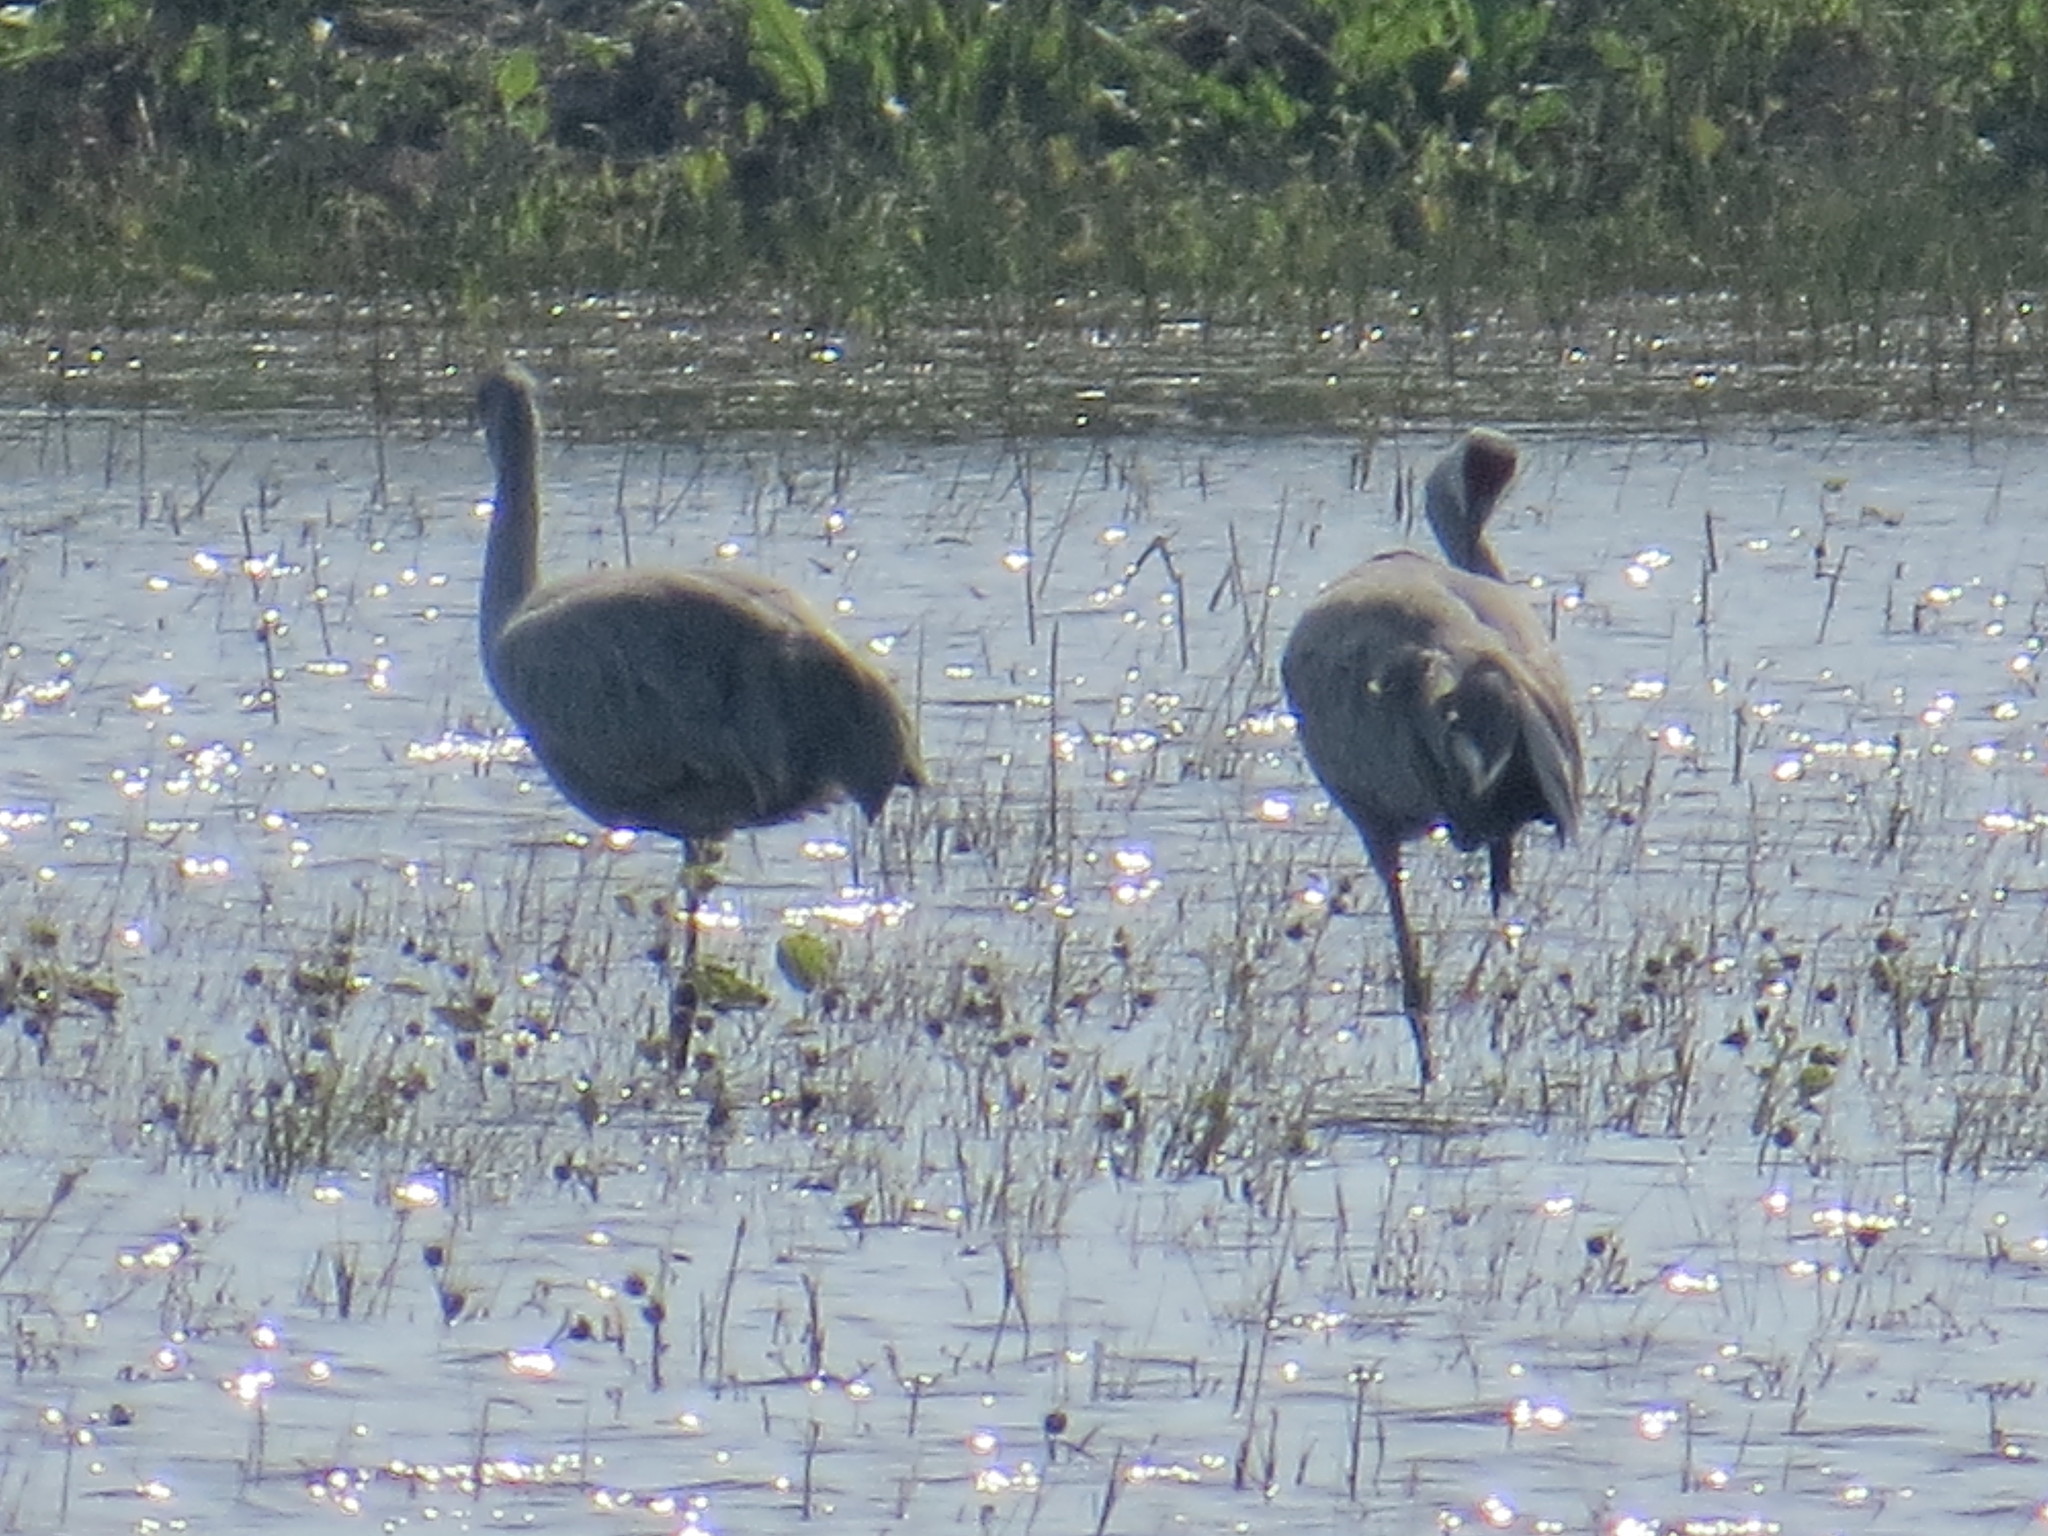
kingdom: Animalia
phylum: Chordata
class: Aves
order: Gruiformes
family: Gruidae
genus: Grus
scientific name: Grus canadensis
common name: Sandhill crane
